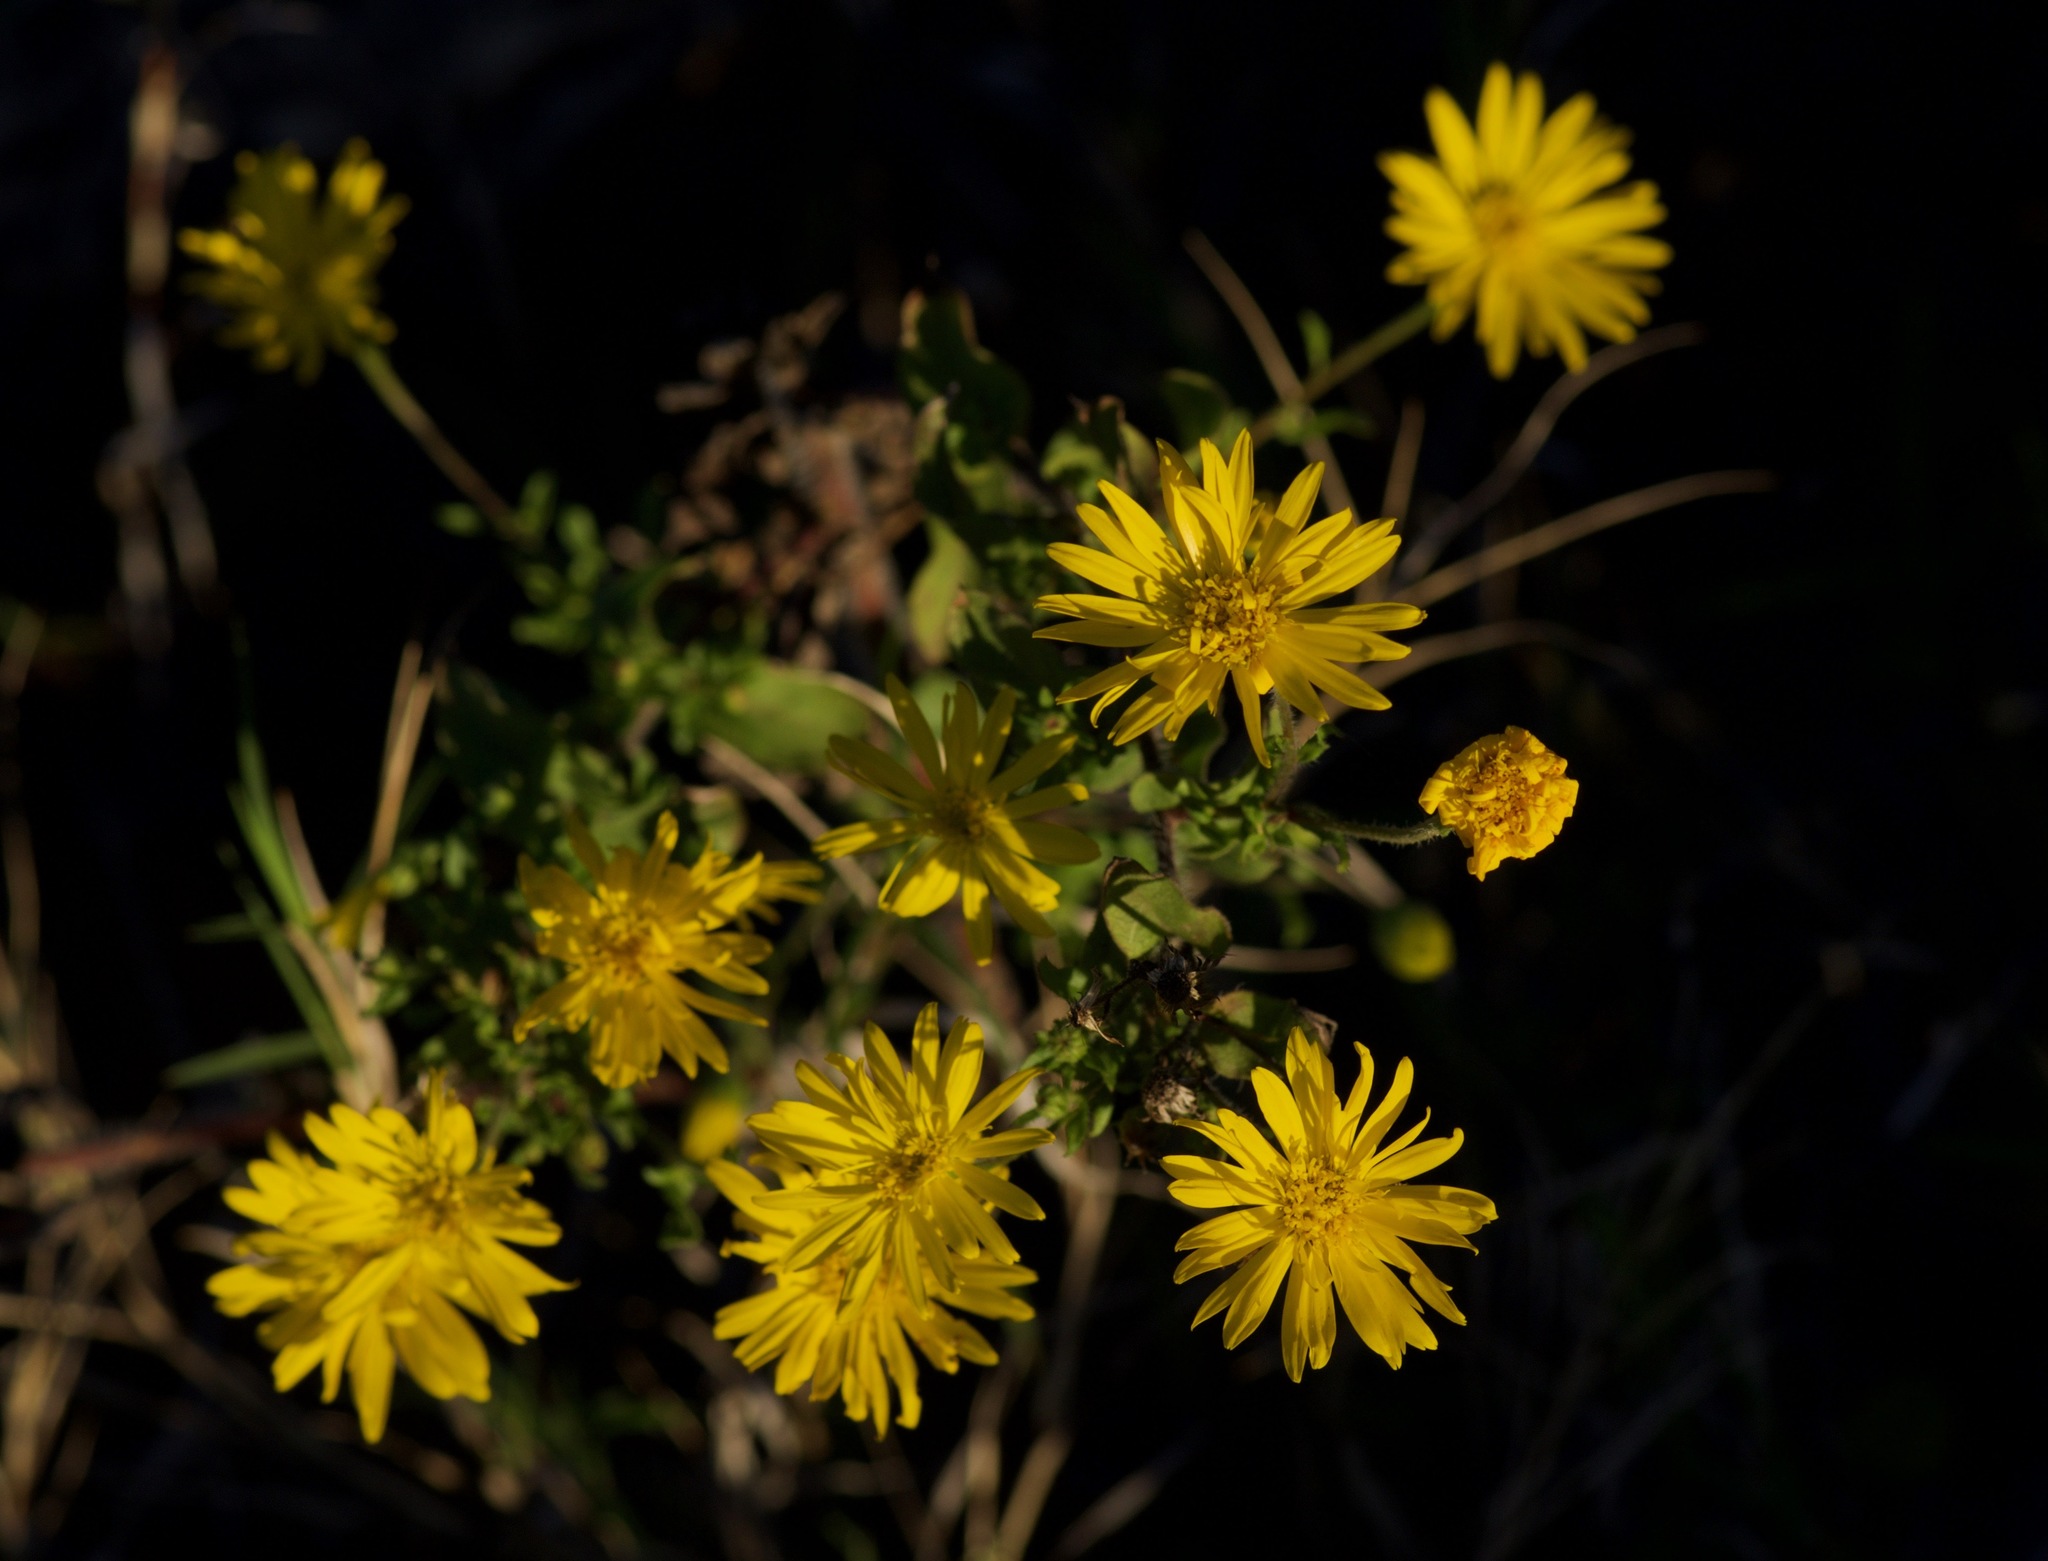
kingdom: Plantae
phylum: Tracheophyta
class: Magnoliopsida
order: Asterales
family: Asteraceae
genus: Heterotheca
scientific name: Heterotheca subaxillaris
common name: Camphorweed
